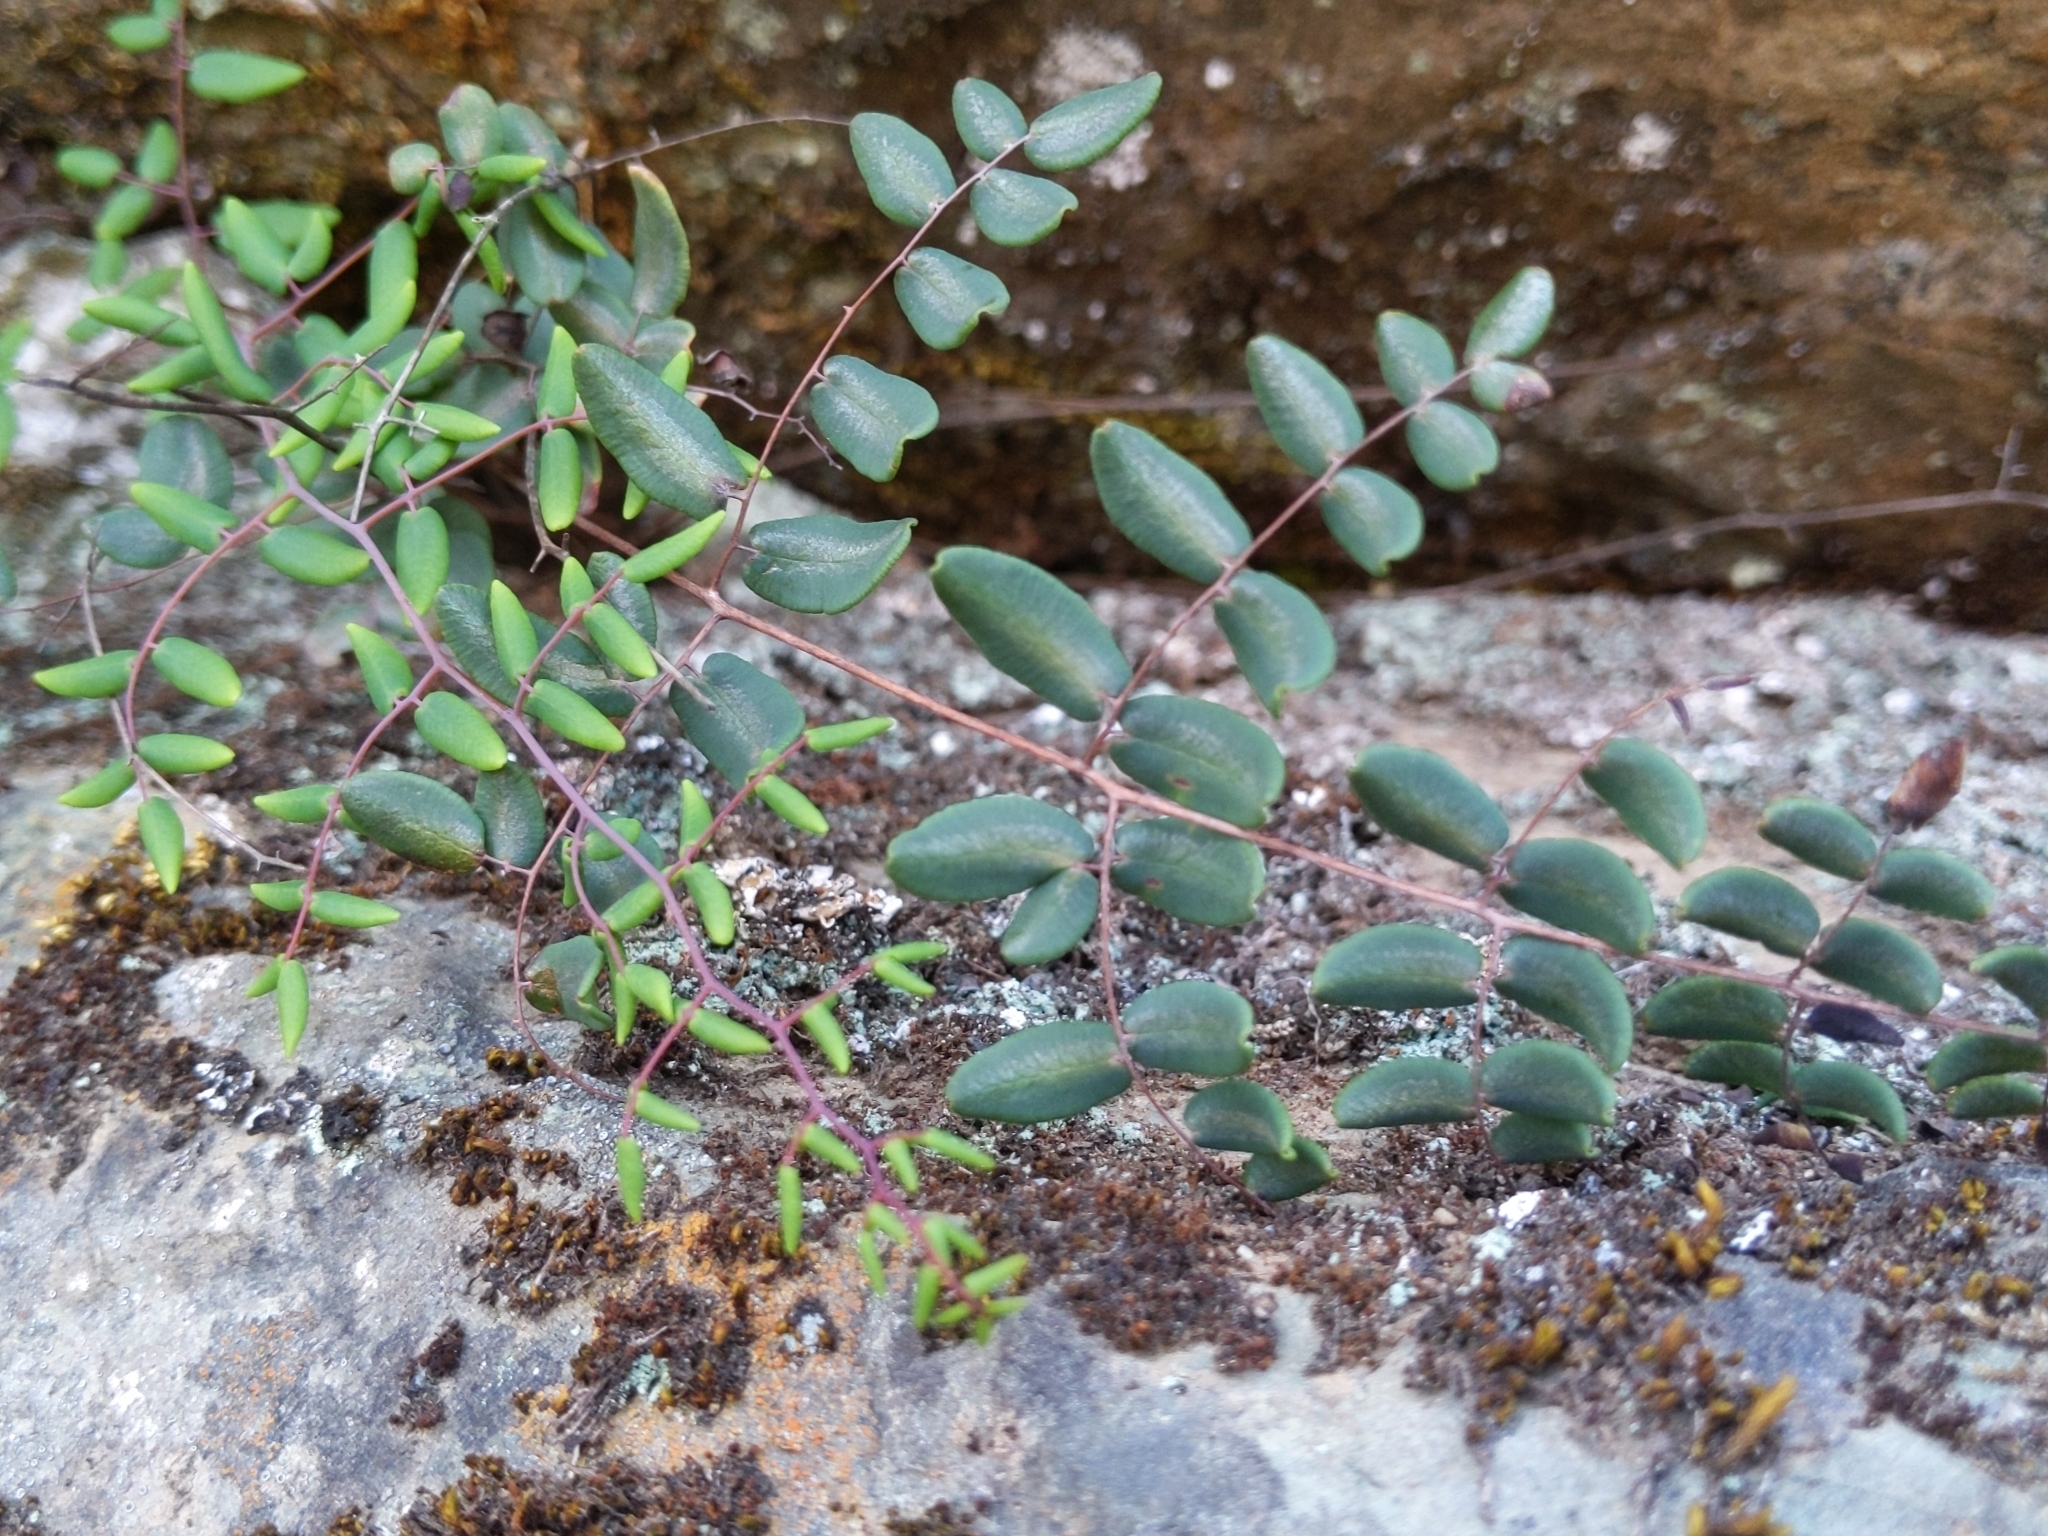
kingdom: Plantae
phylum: Tracheophyta
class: Polypodiopsida
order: Polypodiales
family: Pteridaceae
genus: Pellaea
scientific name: Pellaea andromedifolia
